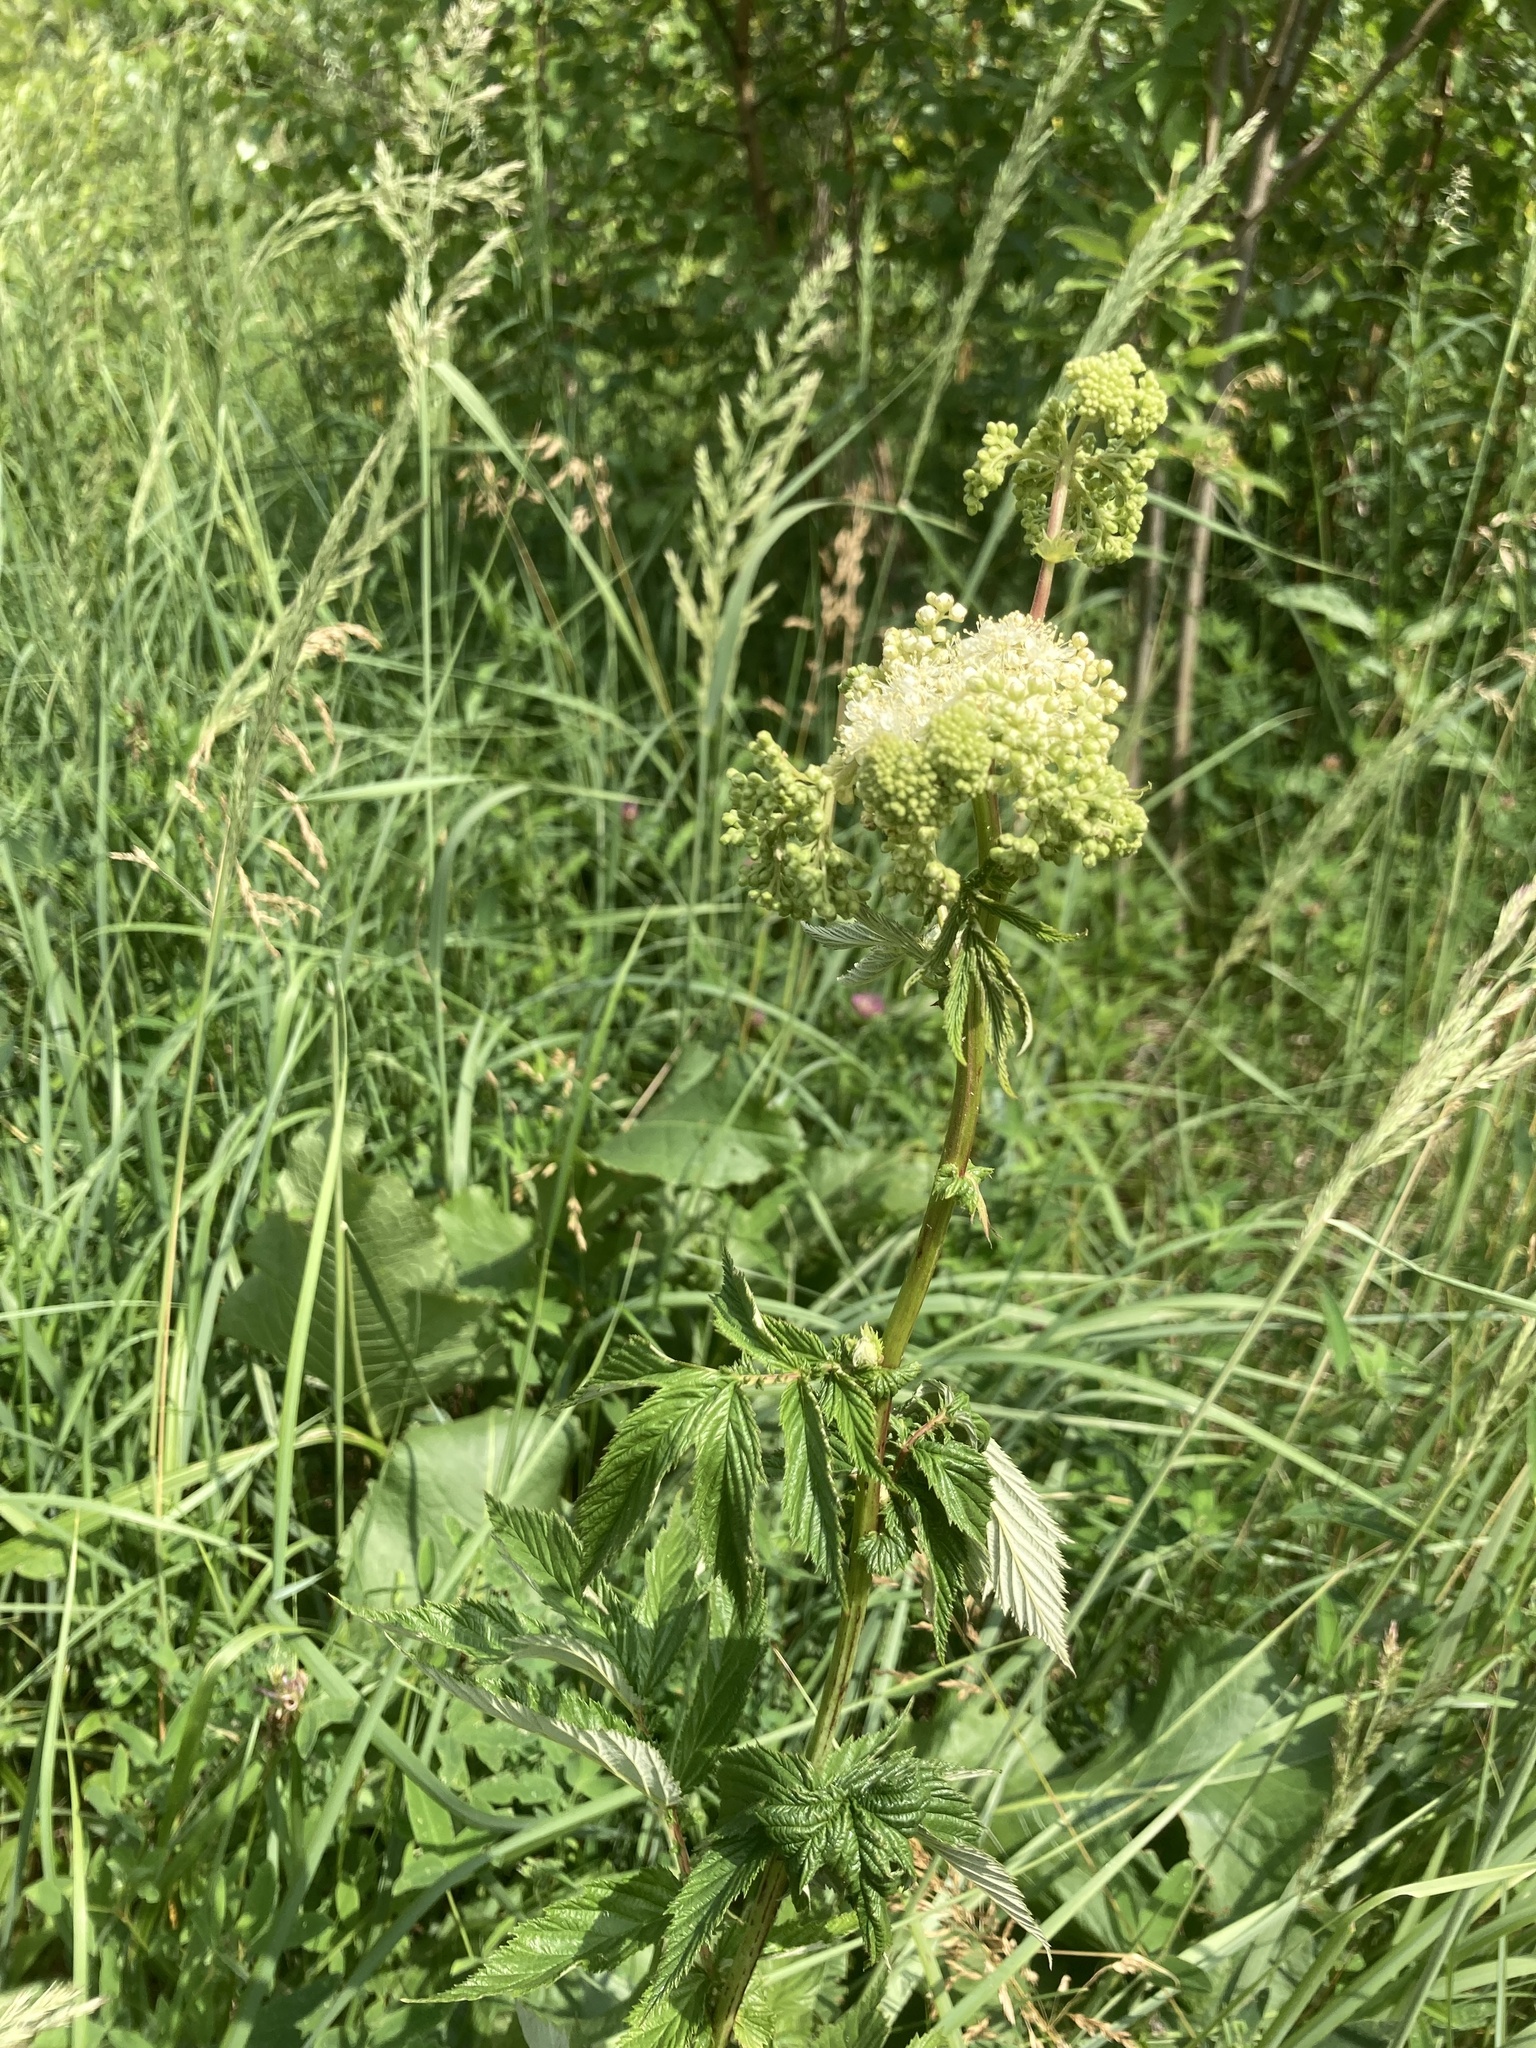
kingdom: Plantae
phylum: Tracheophyta
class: Magnoliopsida
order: Rosales
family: Rosaceae
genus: Filipendula
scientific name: Filipendula ulmaria
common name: Meadowsweet
